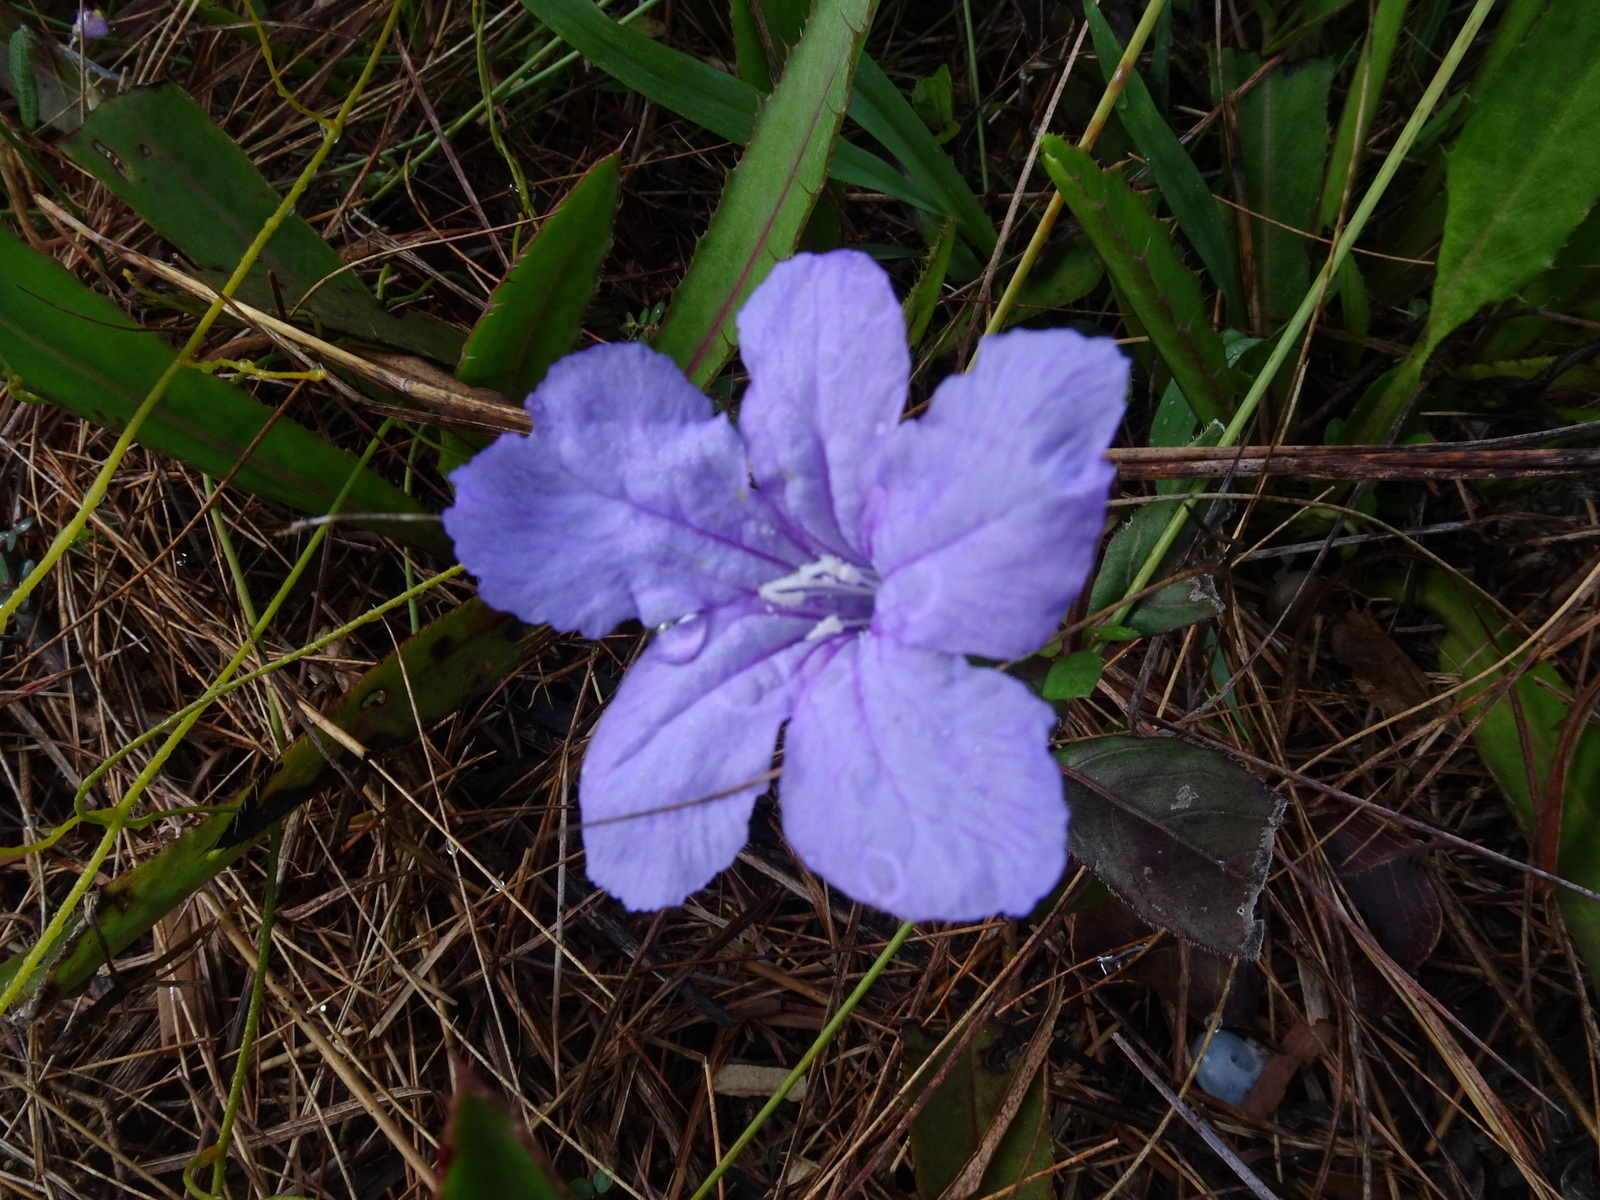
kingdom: Plantae
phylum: Tracheophyta
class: Magnoliopsida
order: Lamiales
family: Acanthaceae
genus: Ruellia
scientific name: Ruellia caroliniensis
